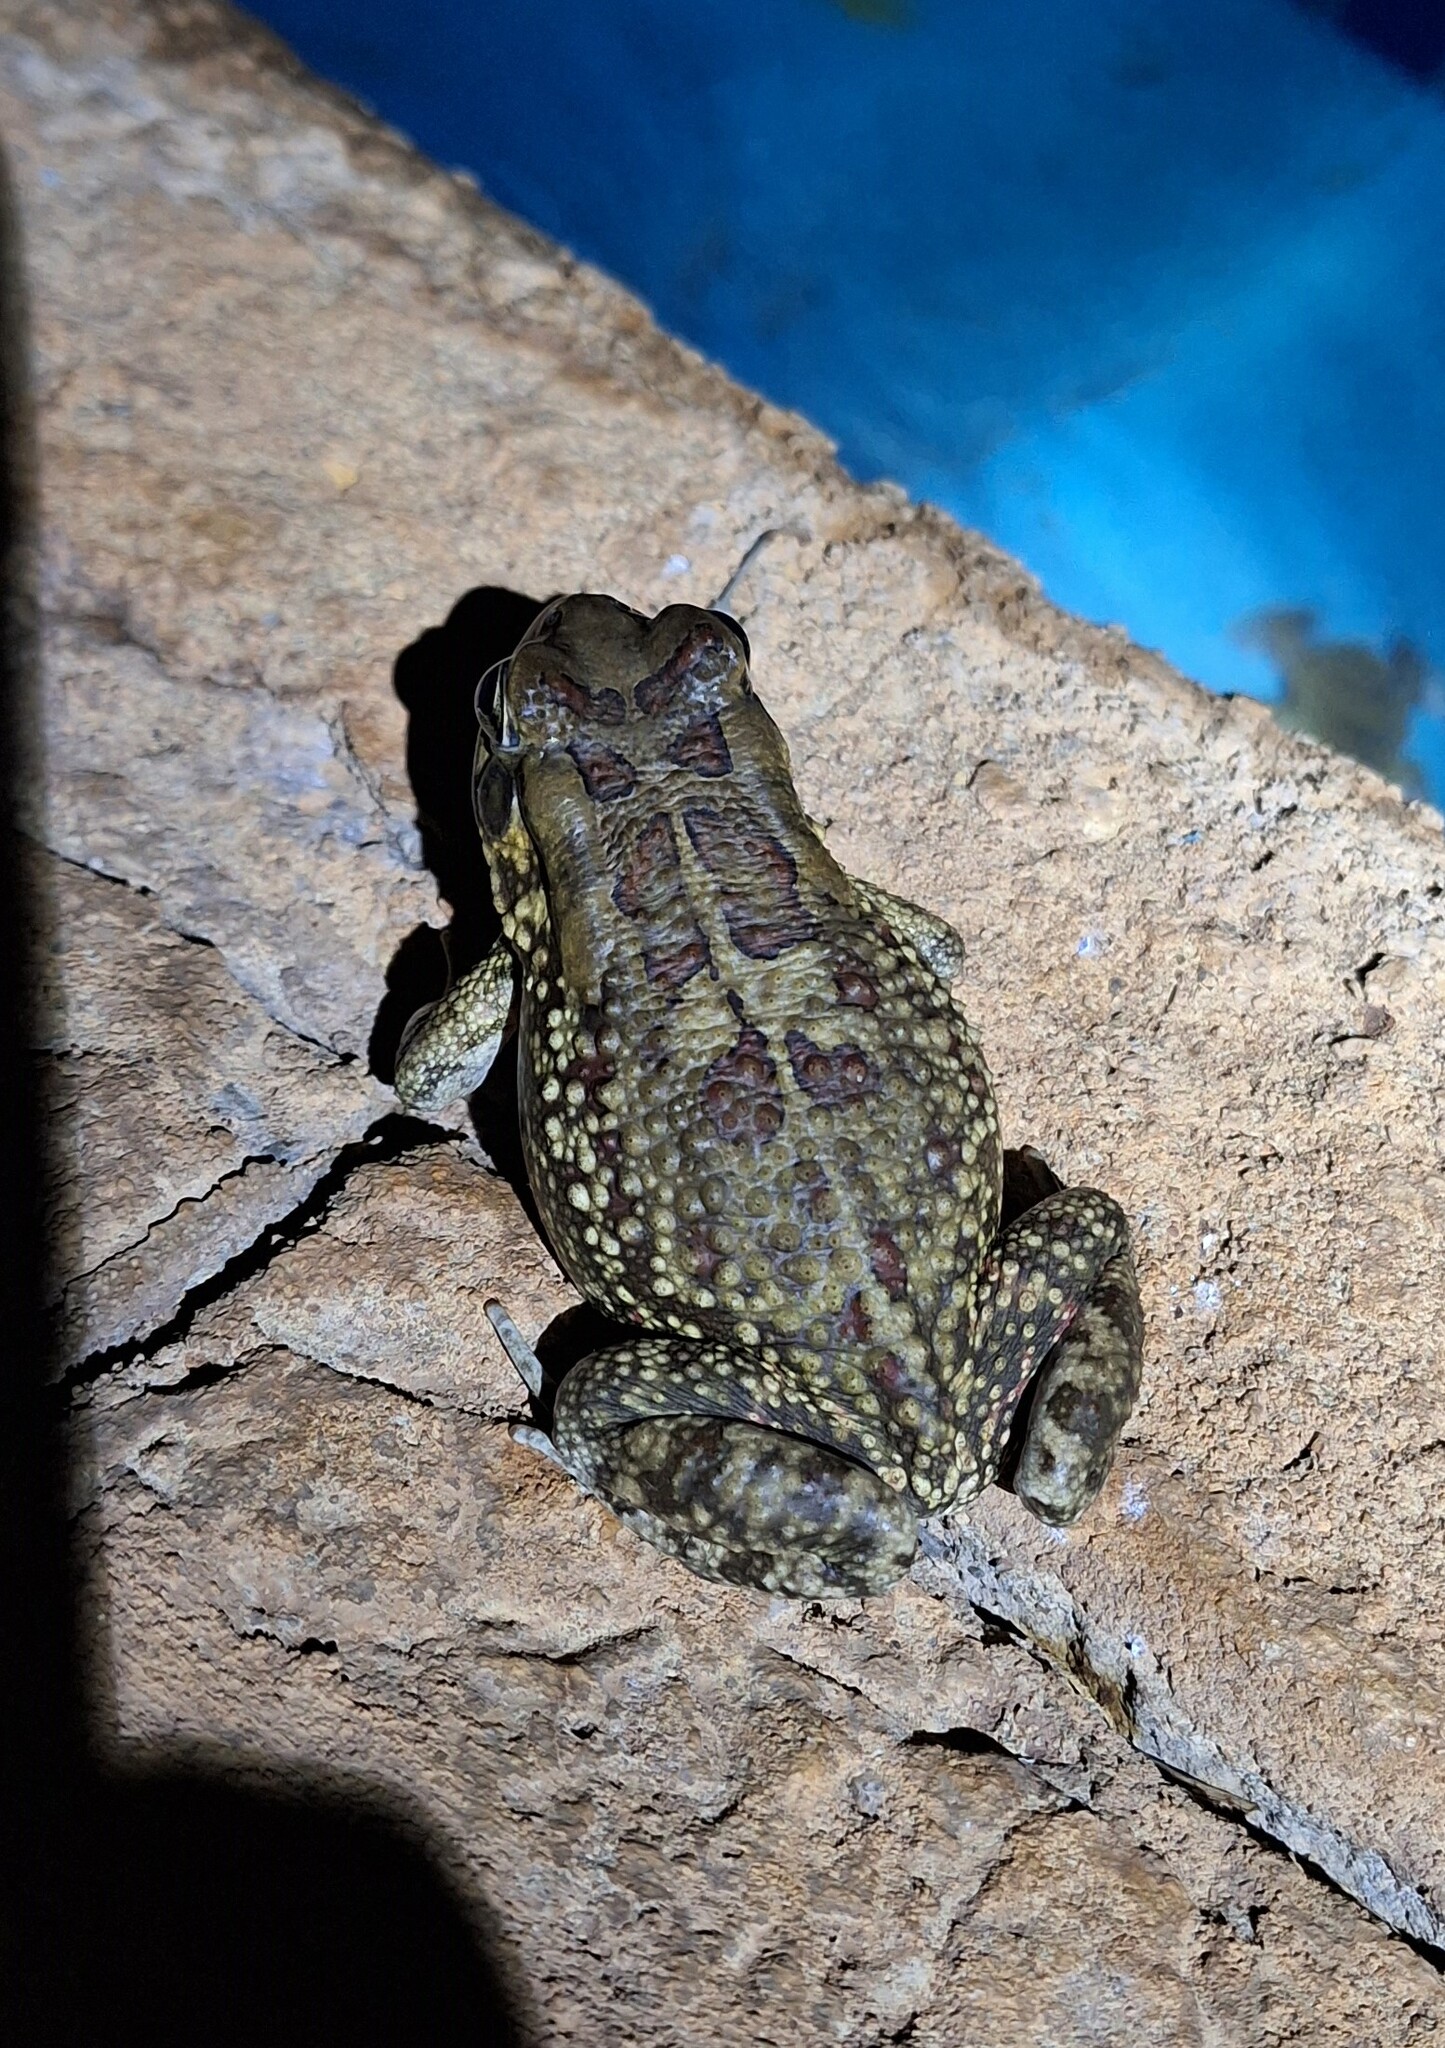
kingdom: Animalia
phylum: Chordata
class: Amphibia
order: Anura
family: Bufonidae
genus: Sclerophrys
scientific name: Sclerophrys garmani
